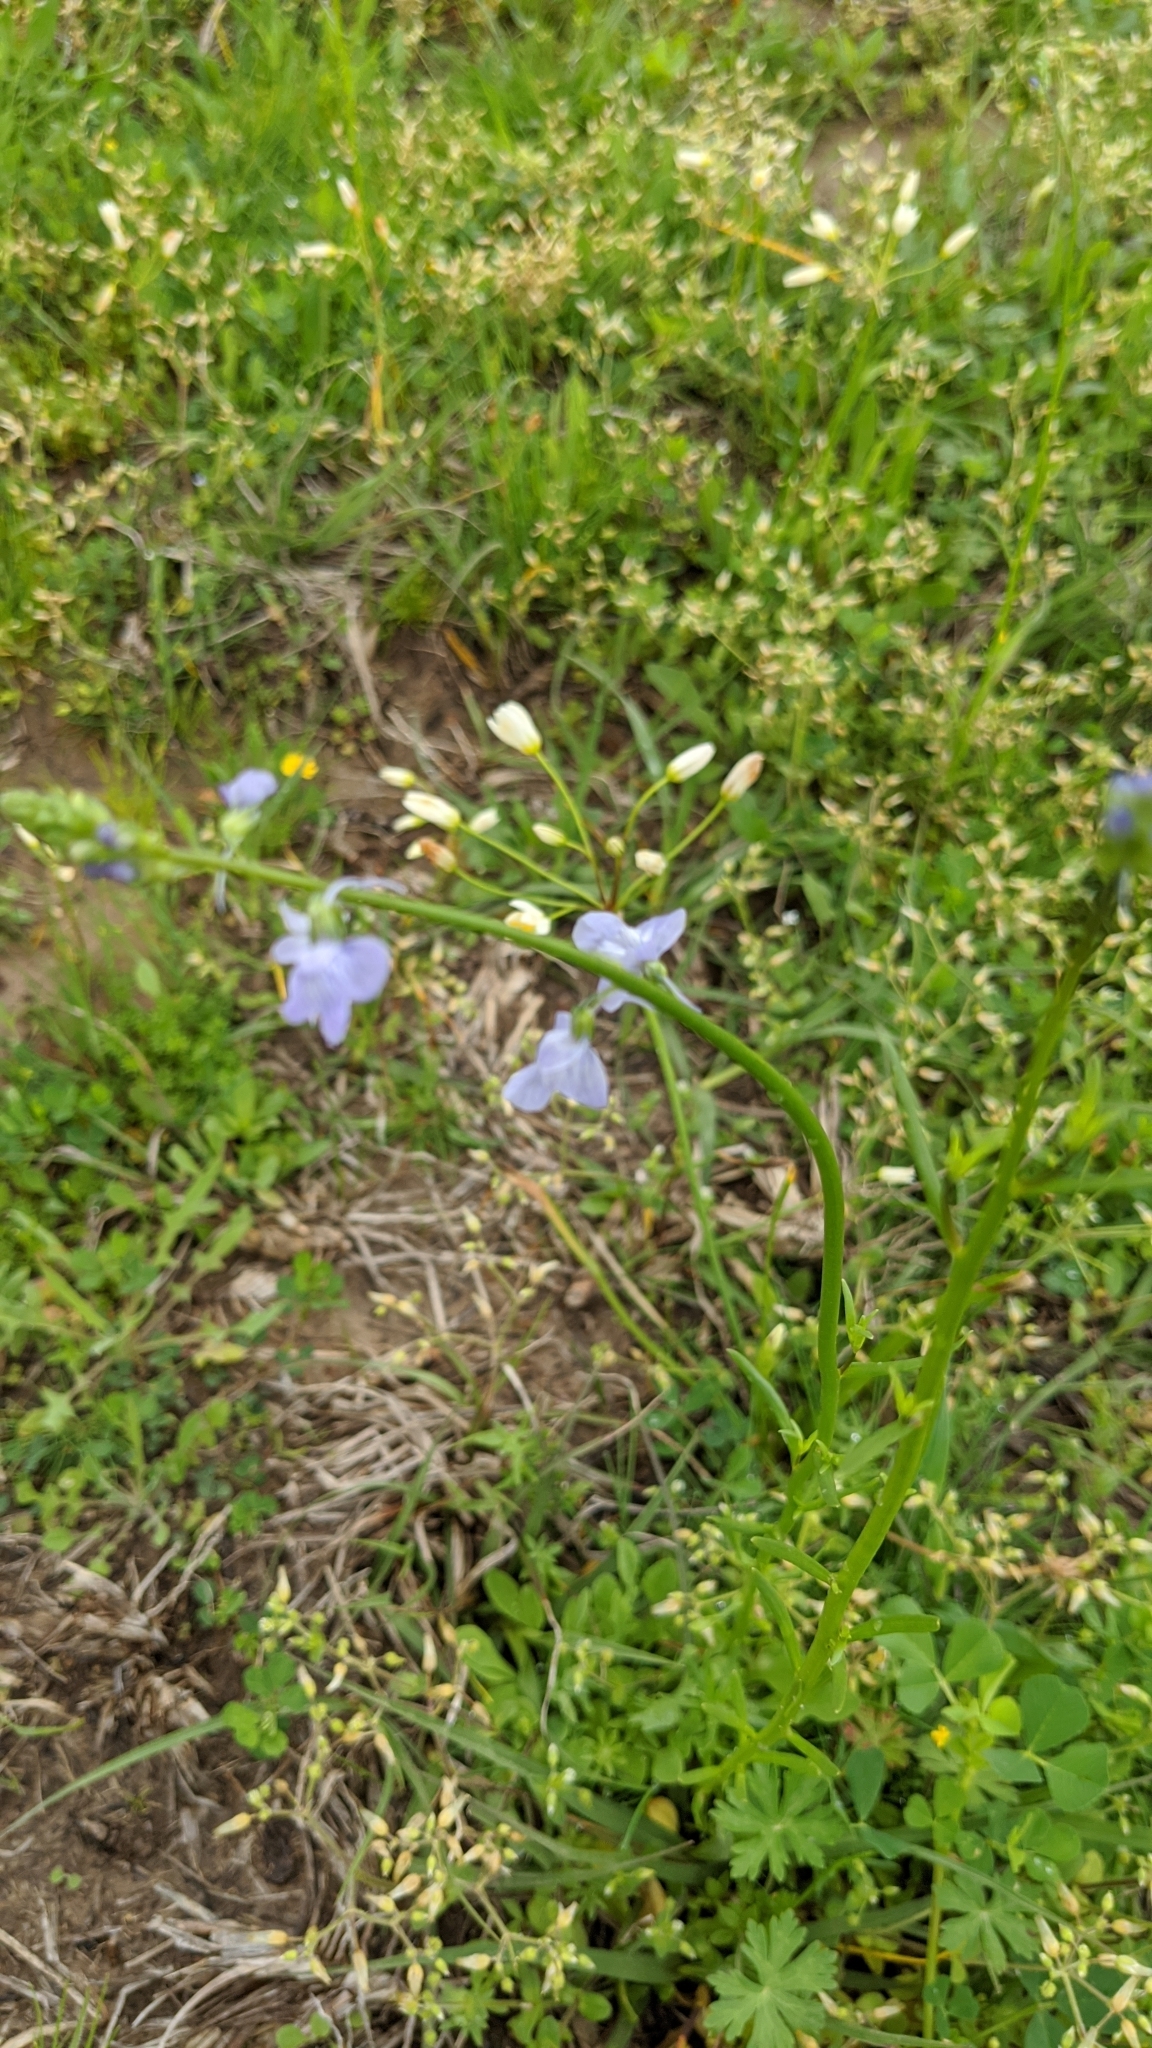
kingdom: Plantae
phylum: Tracheophyta
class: Magnoliopsida
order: Lamiales
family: Plantaginaceae
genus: Nuttallanthus
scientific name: Nuttallanthus texanus
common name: Texas toadflax
